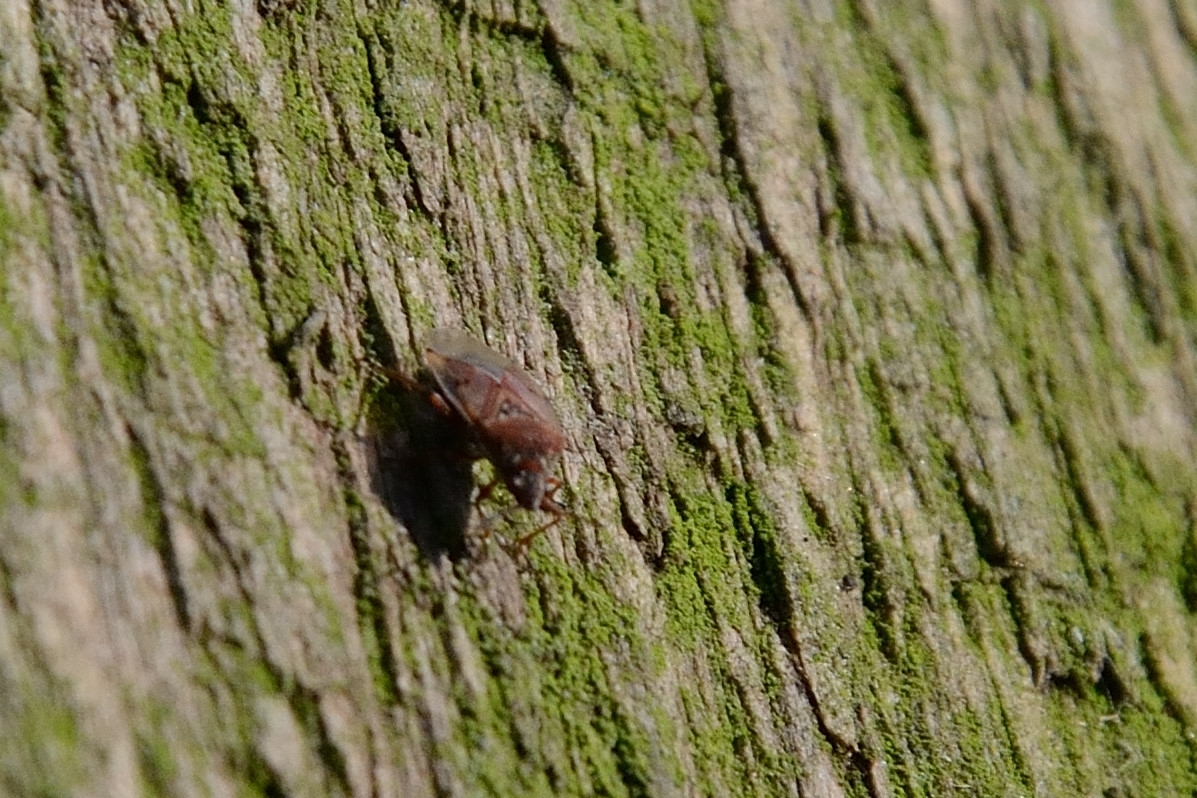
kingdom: Animalia
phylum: Arthropoda
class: Insecta
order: Hemiptera
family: Lygaeidae
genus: Kleidocerys
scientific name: Kleidocerys resedae
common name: Birch catkin bug
